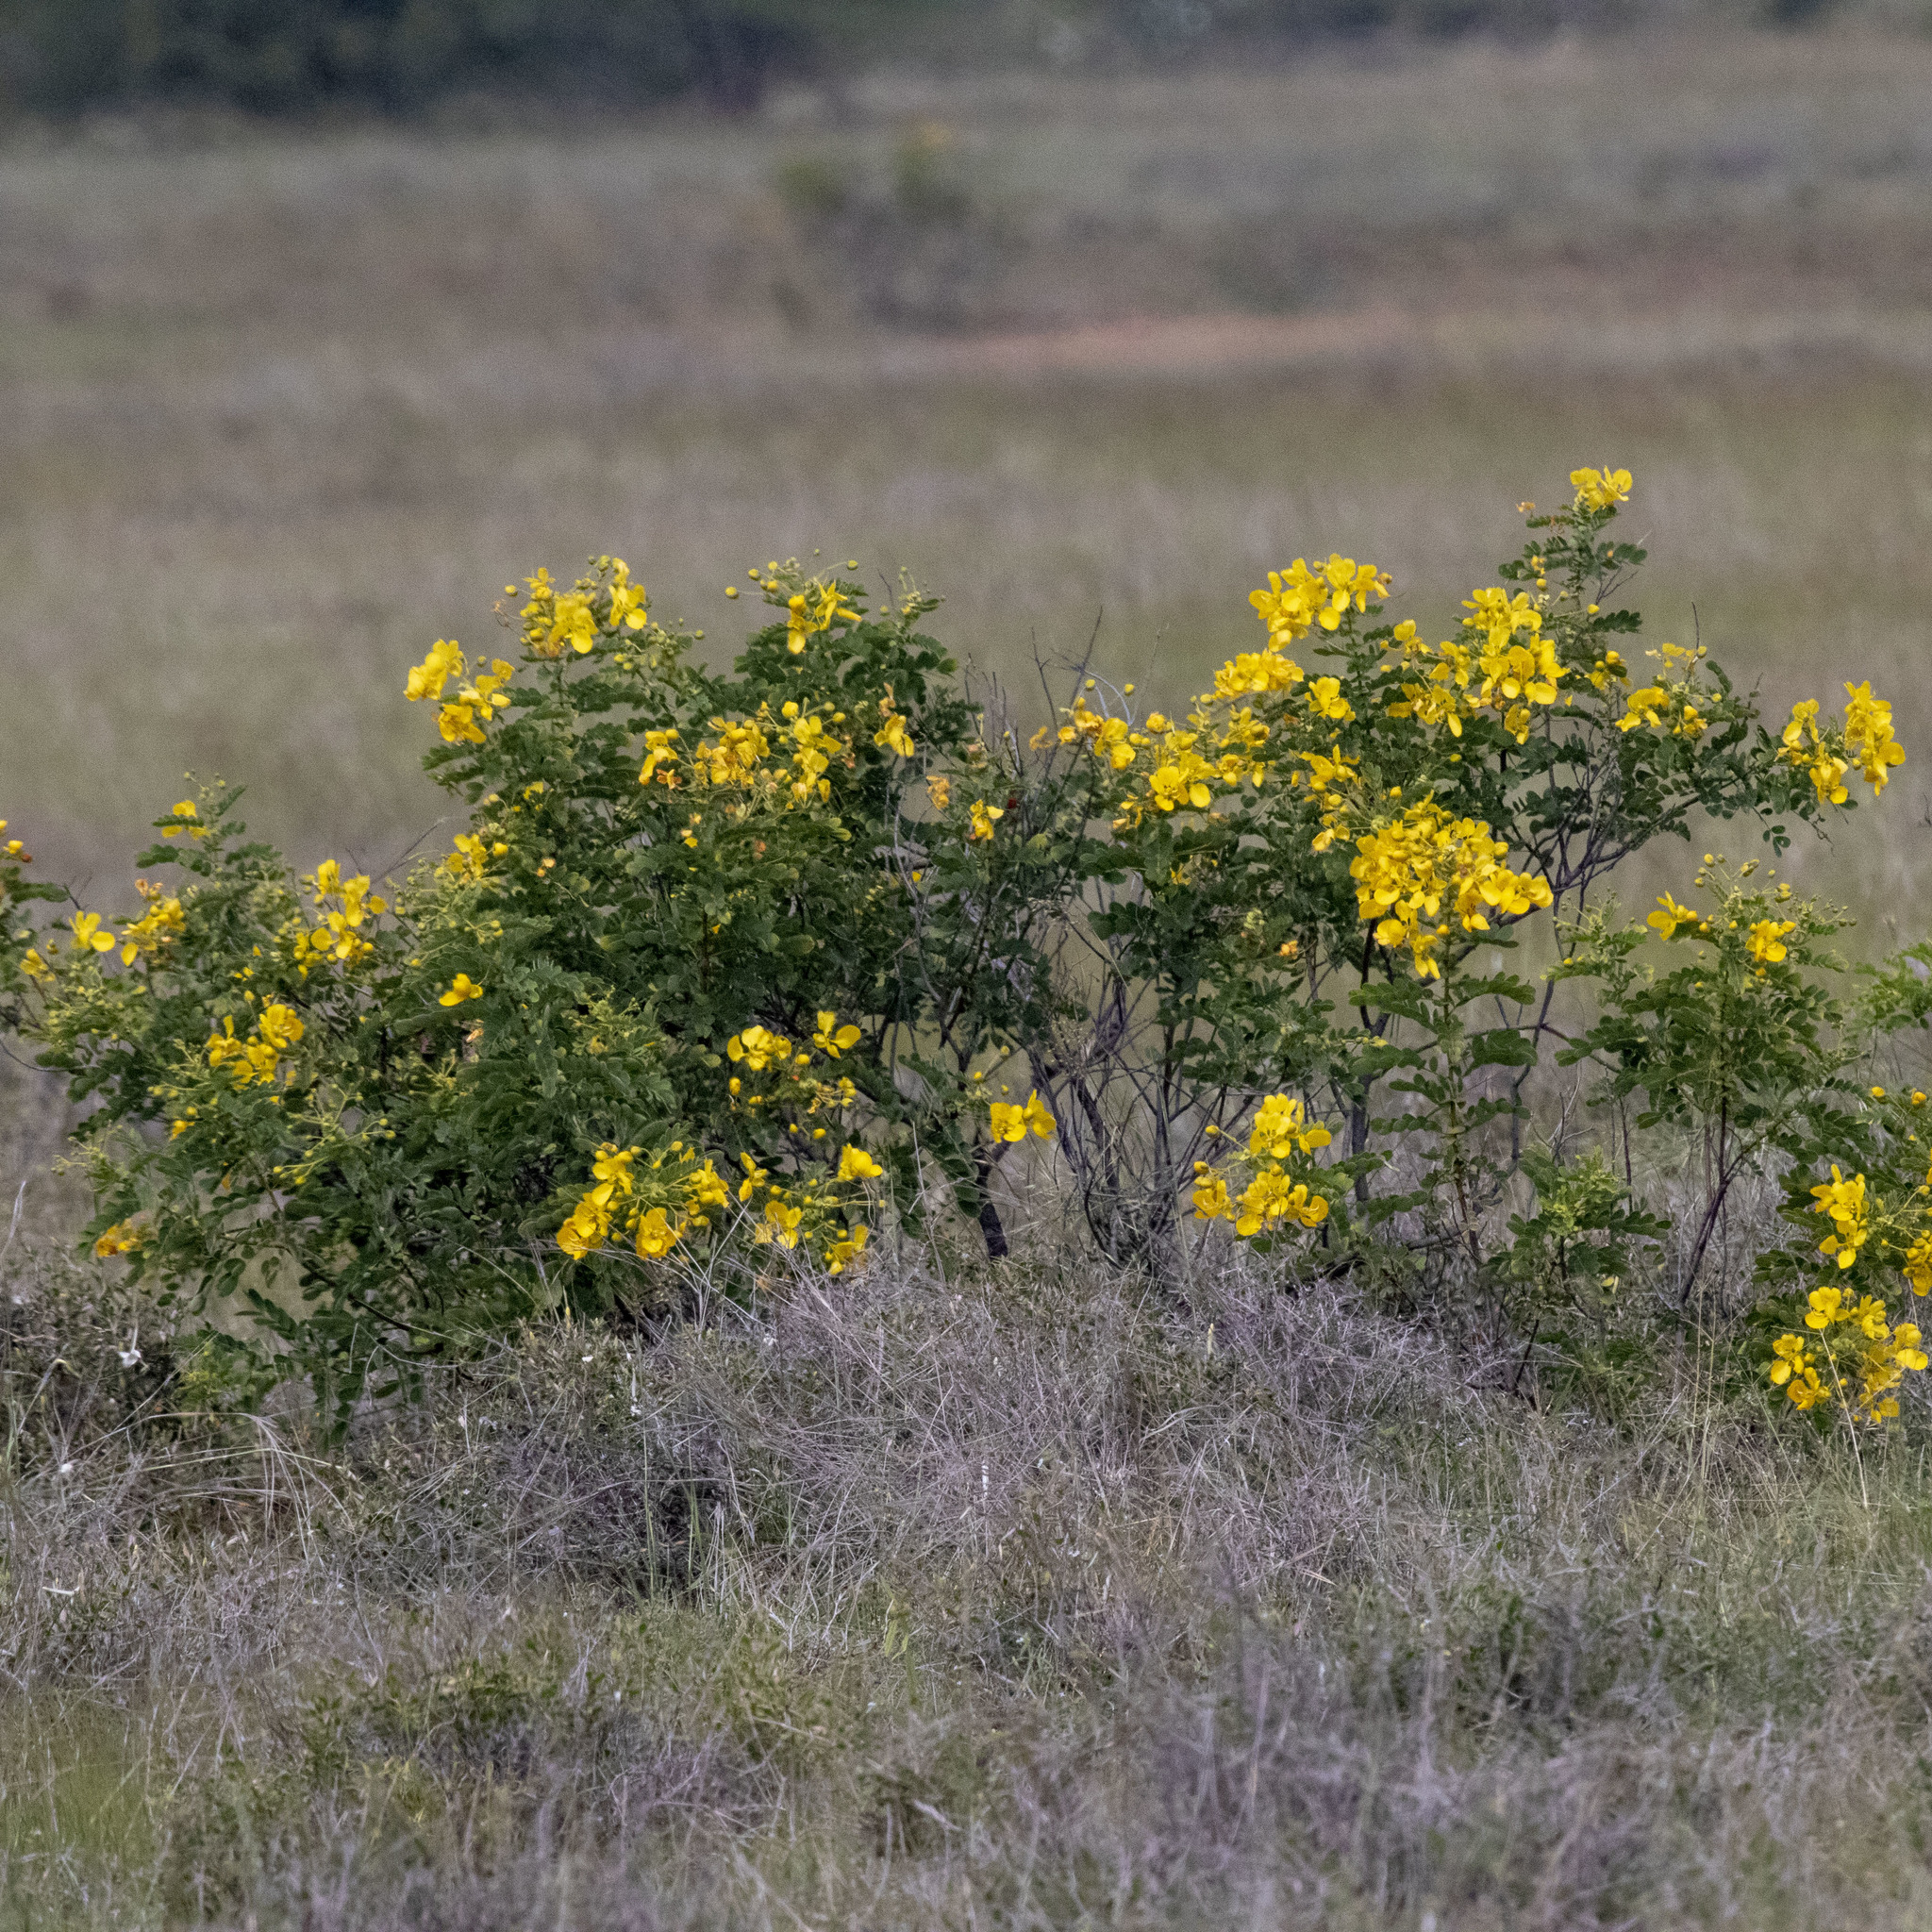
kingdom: Plantae
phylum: Tracheophyta
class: Magnoliopsida
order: Fabales
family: Fabaceae
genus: Senna
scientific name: Senna auriculata
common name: Tanner's cassia
